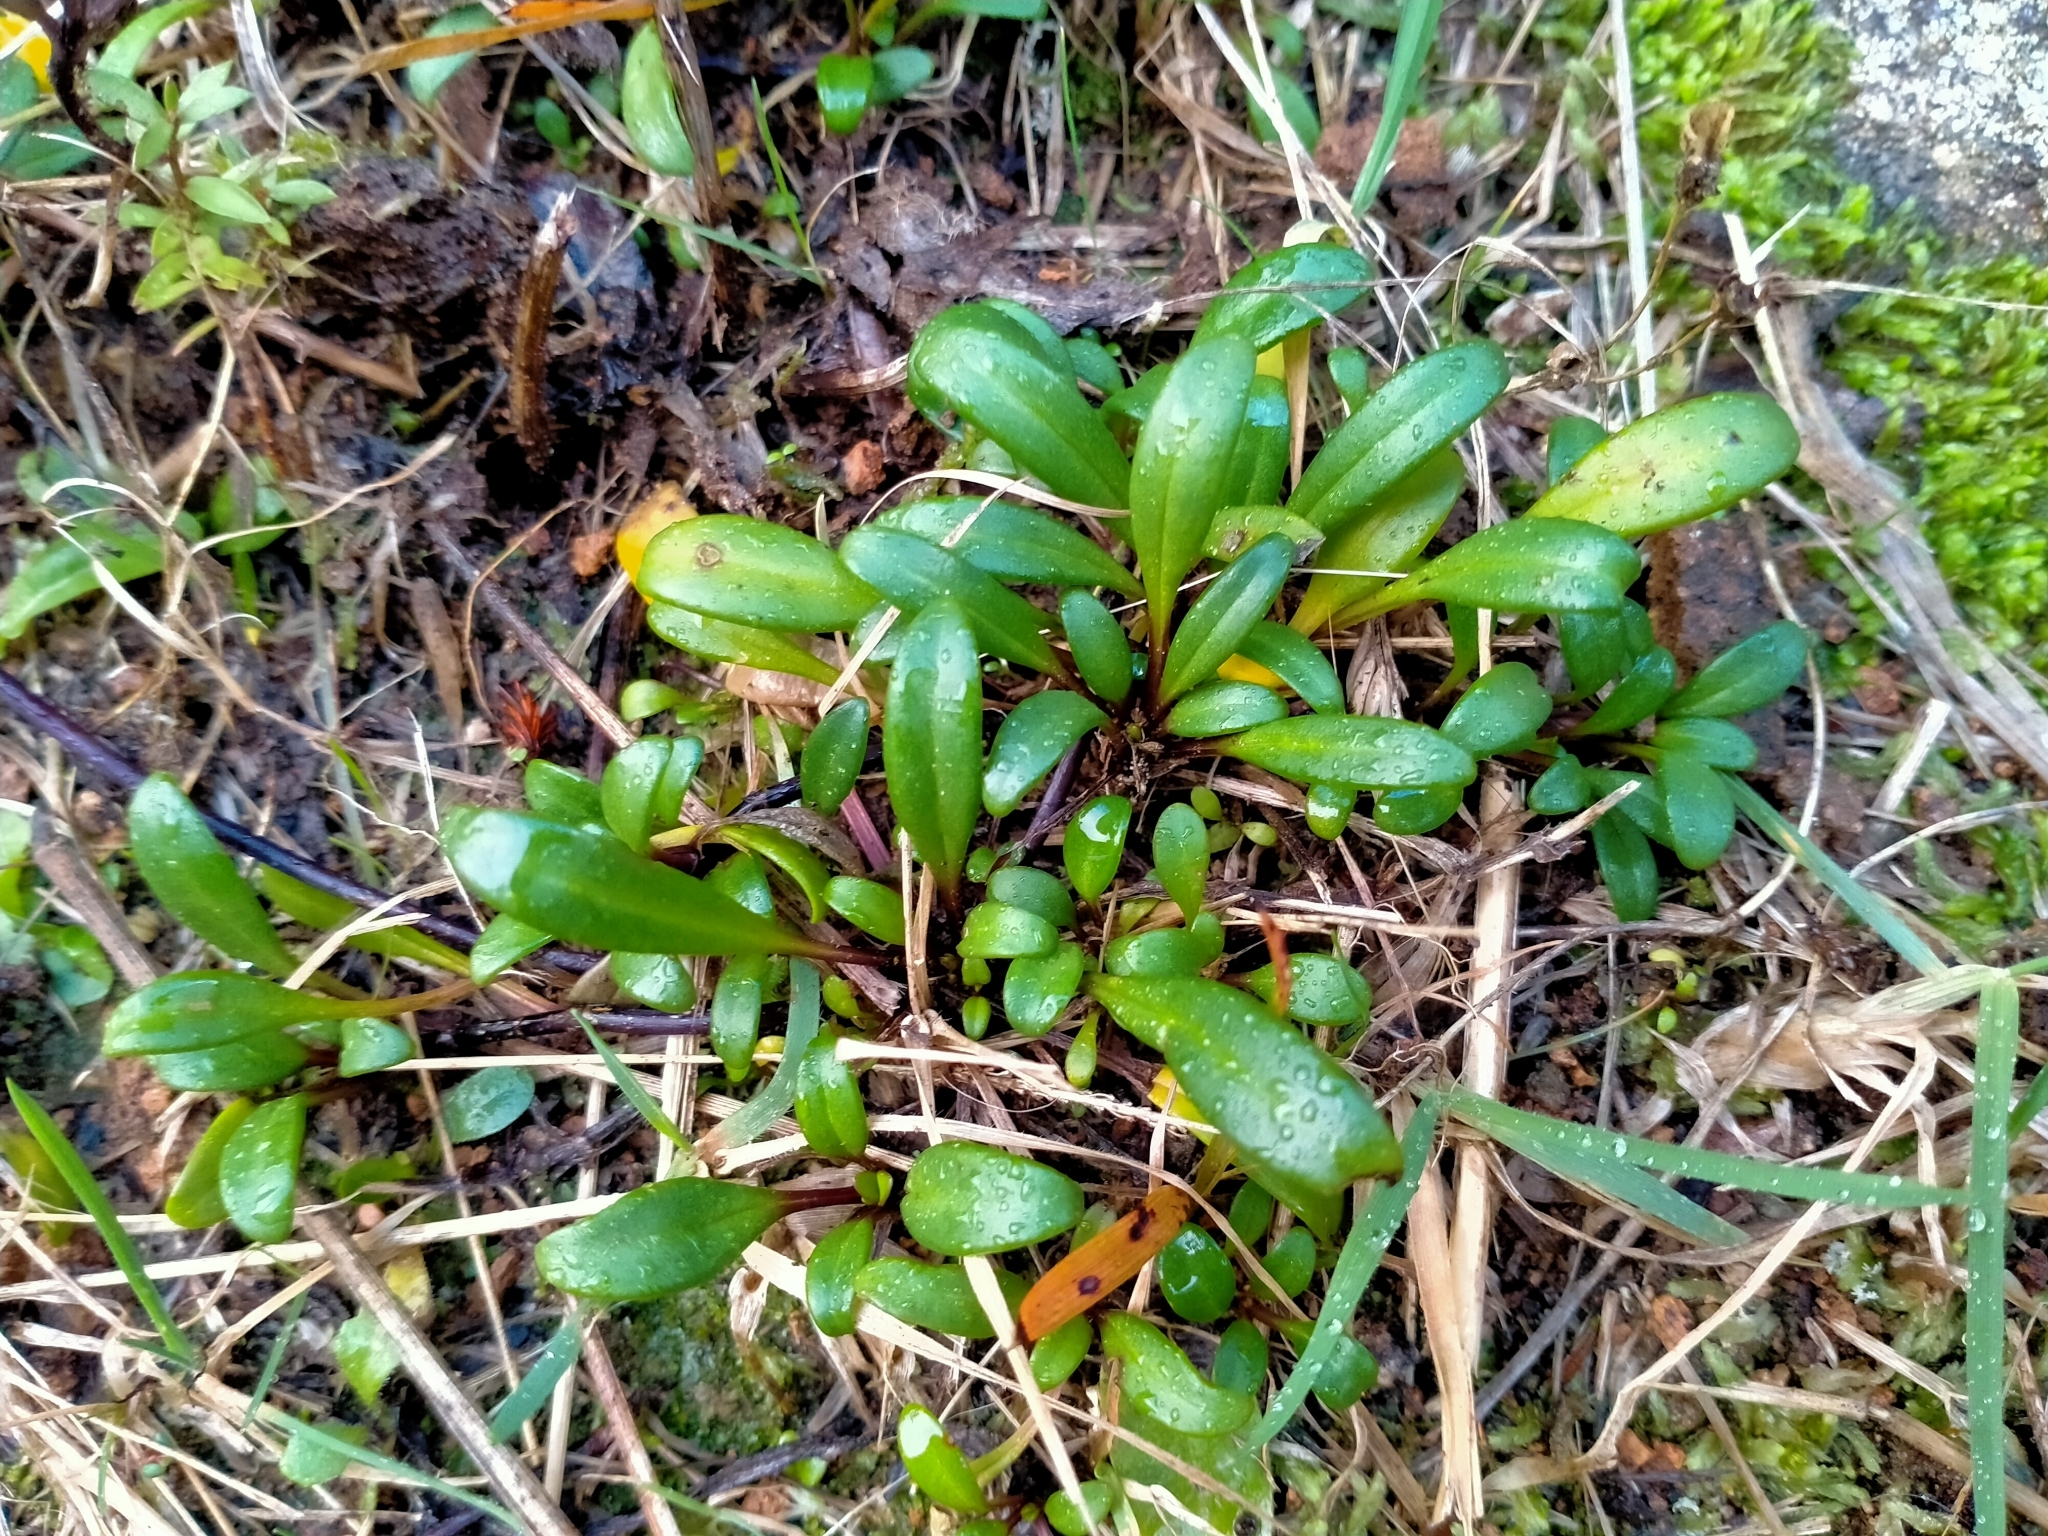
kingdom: Plantae
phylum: Tracheophyta
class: Magnoliopsida
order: Gentianales
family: Gentianaceae
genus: Gentianella
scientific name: Gentianella saxosa
